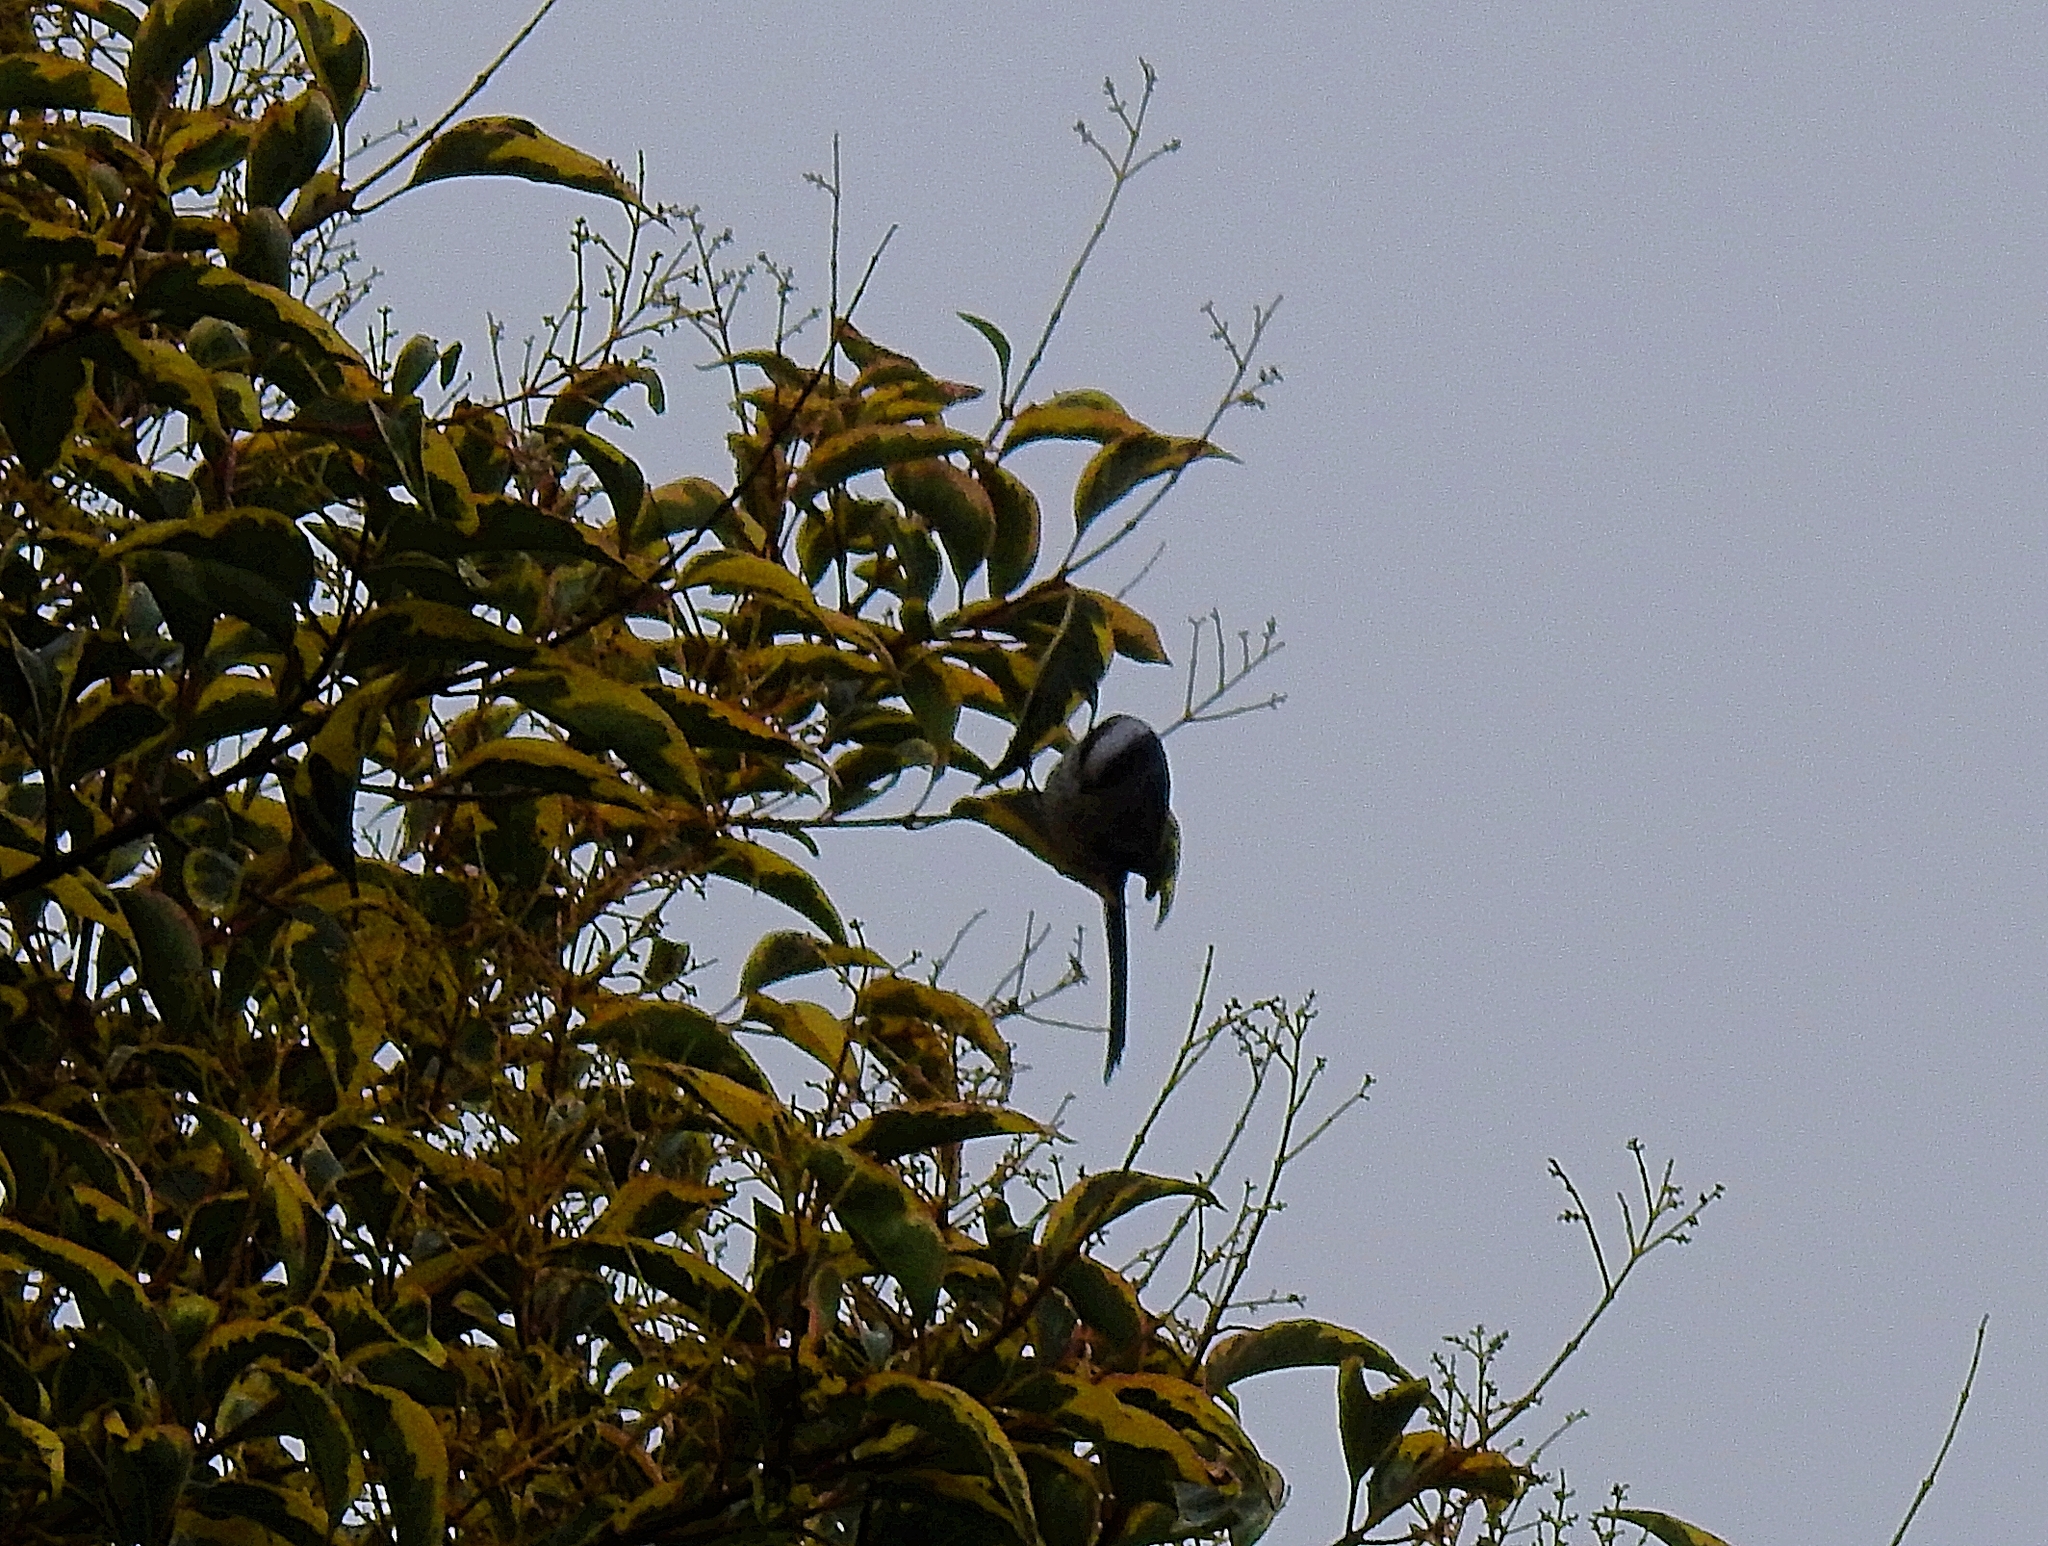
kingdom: Animalia
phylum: Chordata
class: Aves
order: Passeriformes
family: Aegithalidae
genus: Aegithalos
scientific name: Aegithalos caudatus
